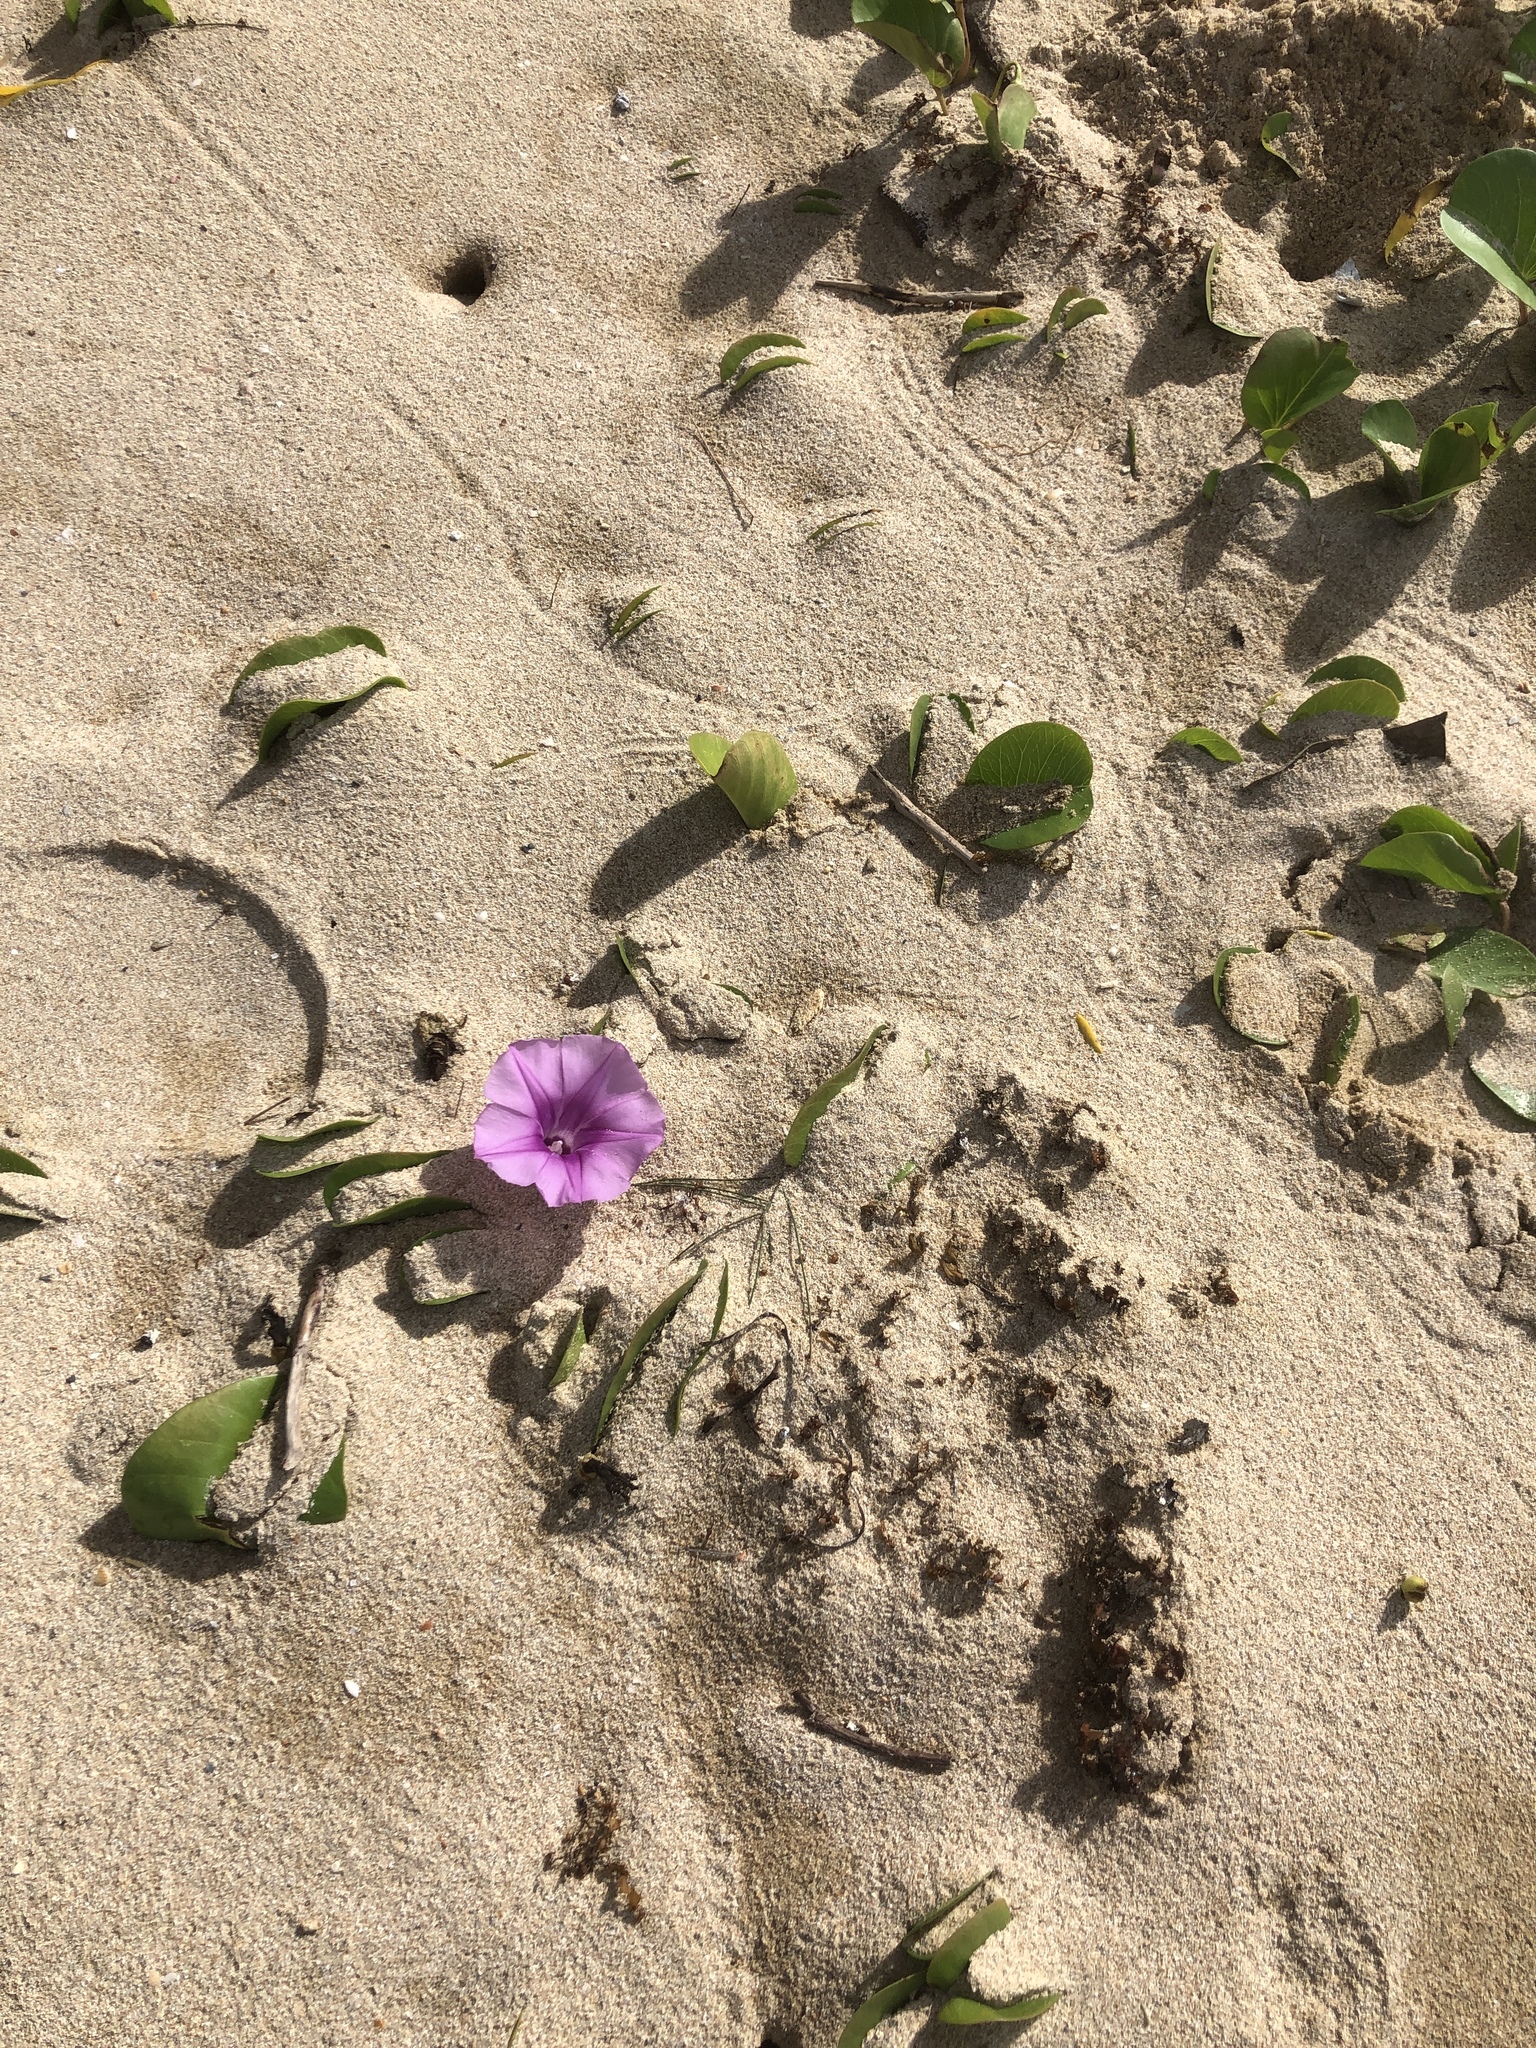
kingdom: Plantae
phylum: Tracheophyta
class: Magnoliopsida
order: Solanales
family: Convolvulaceae
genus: Ipomoea
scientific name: Ipomoea pes-caprae
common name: Beach morning glory
